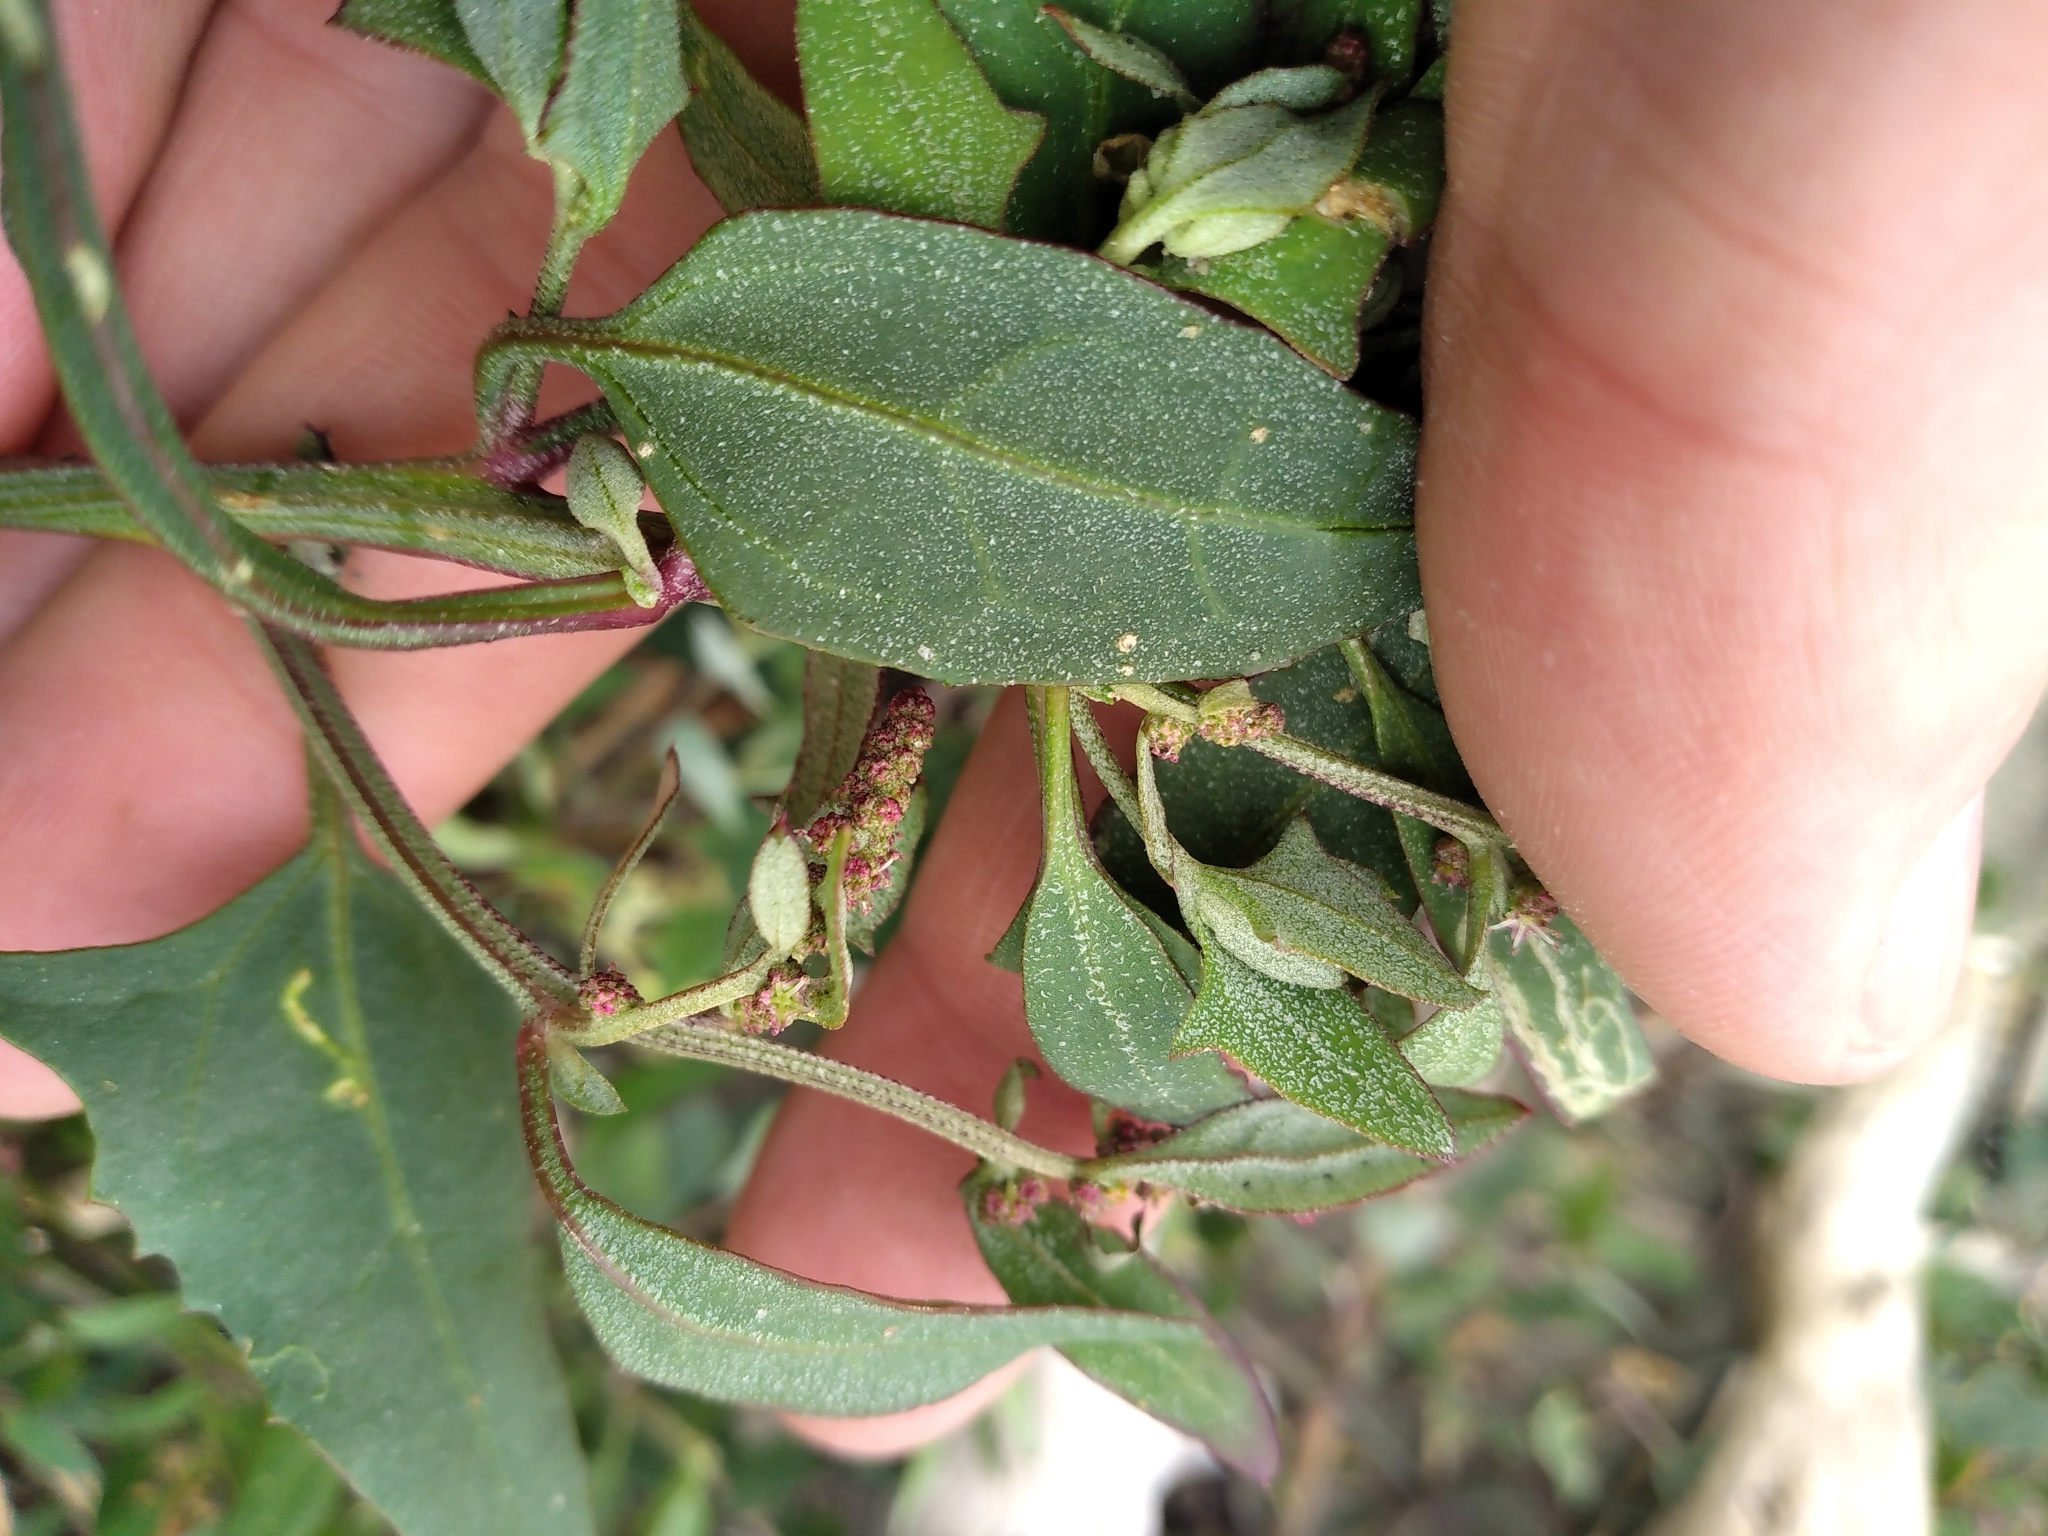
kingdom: Plantae
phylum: Tracheophyta
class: Magnoliopsida
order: Caryophyllales
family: Amaranthaceae
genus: Atriplex
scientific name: Atriplex prostrata
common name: Spear-leaved orache
